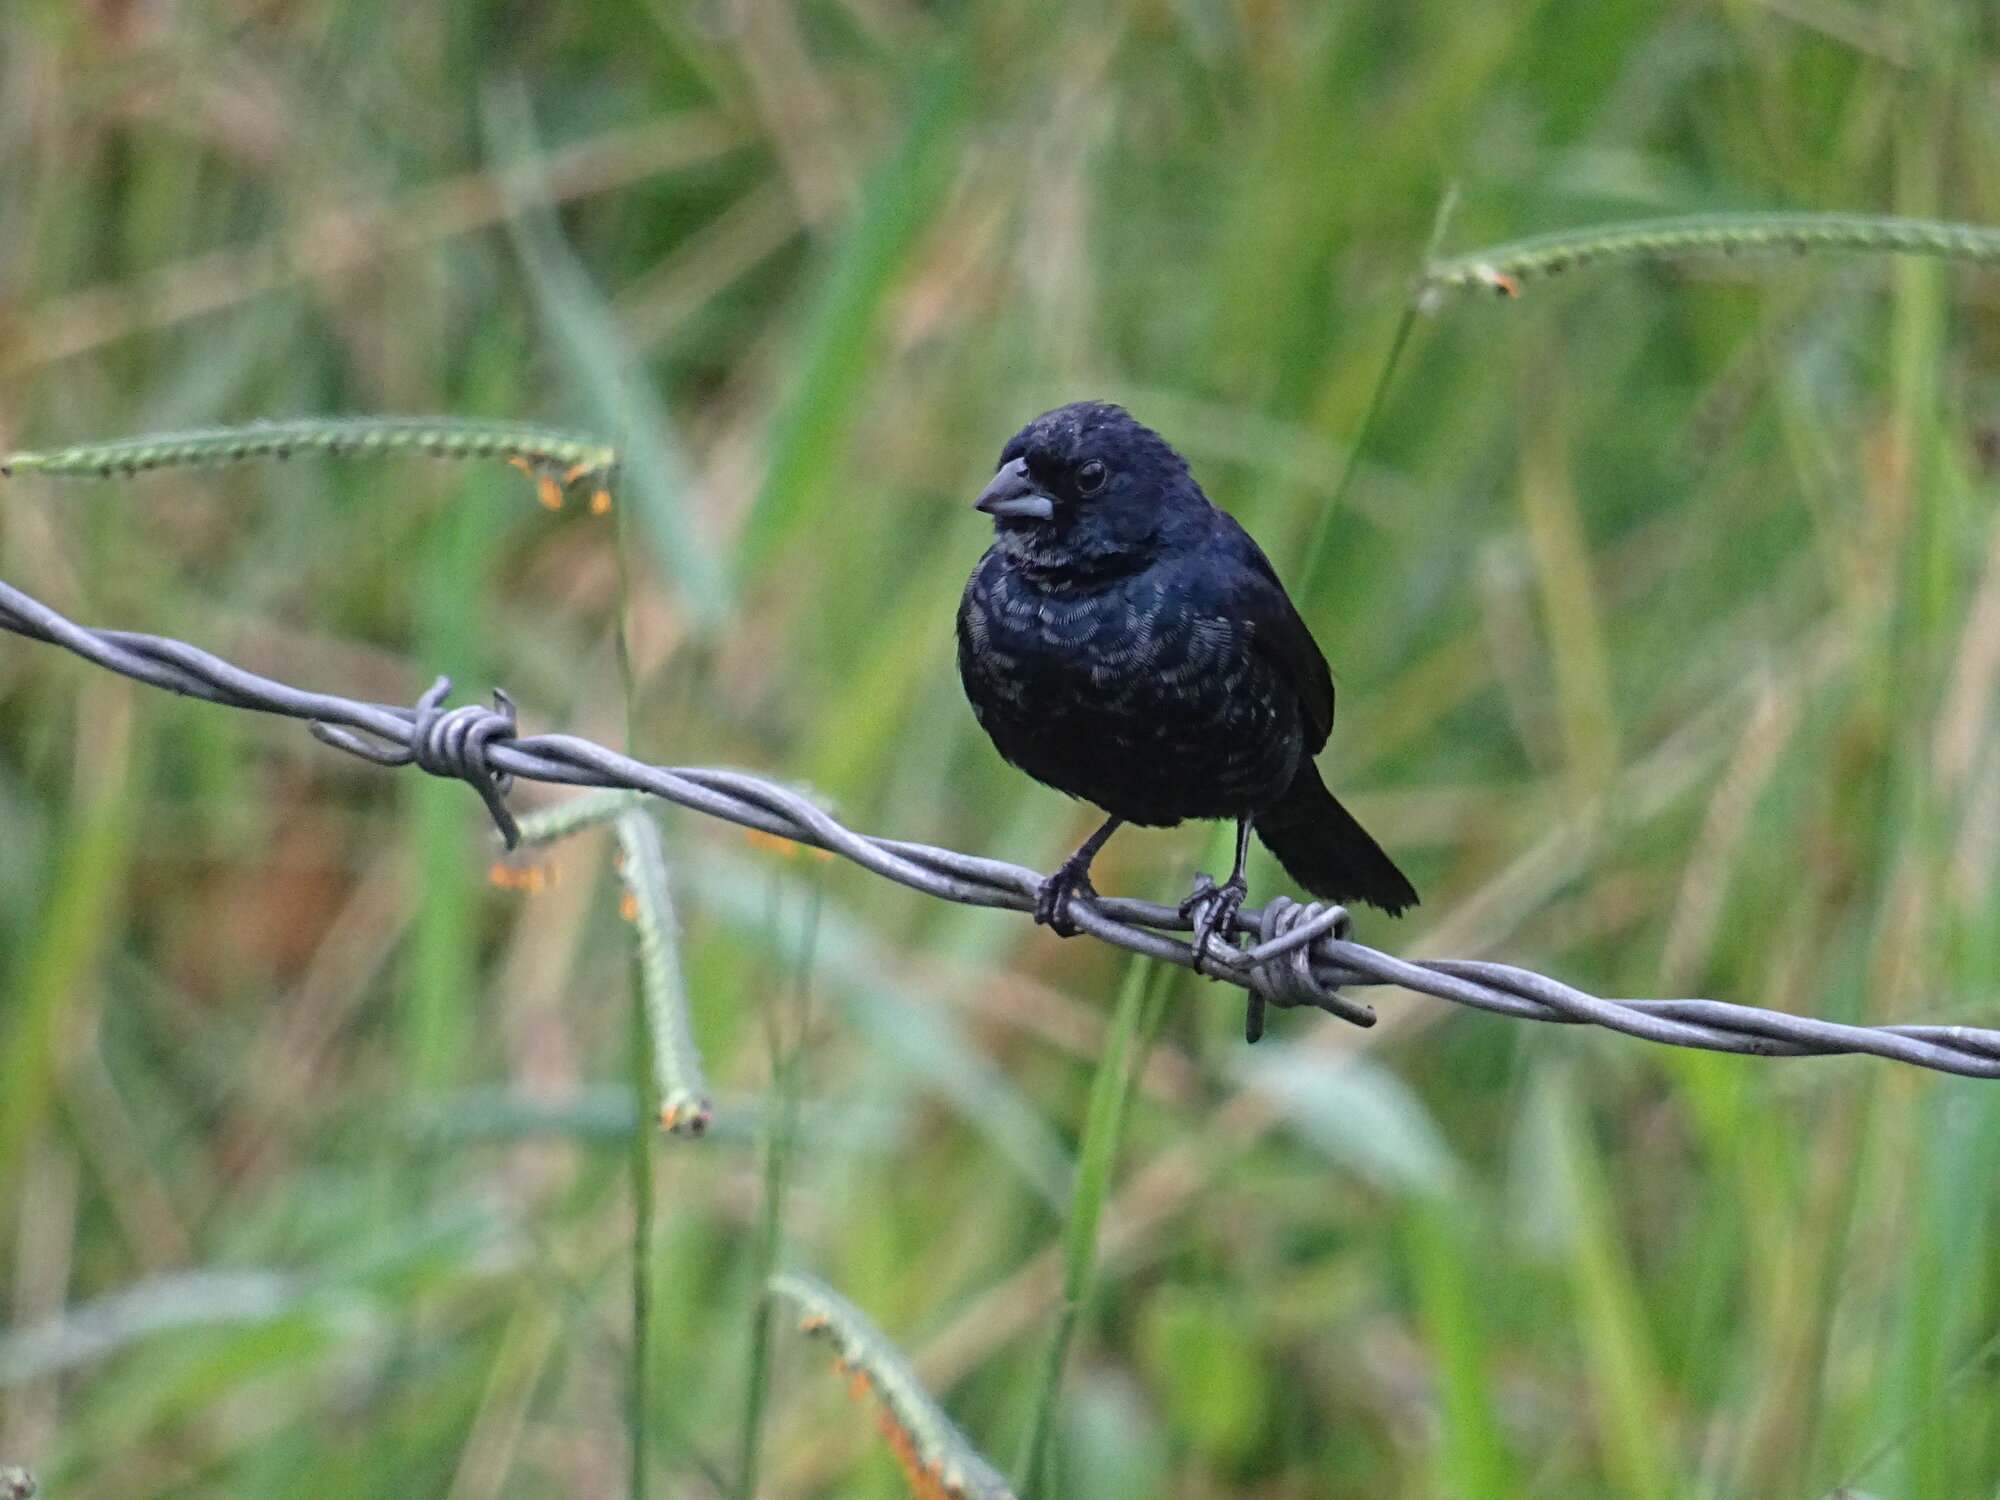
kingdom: Animalia
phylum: Chordata
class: Aves
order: Passeriformes
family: Thraupidae
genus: Volatinia
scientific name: Volatinia jacarina
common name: Blue-black grassquit
